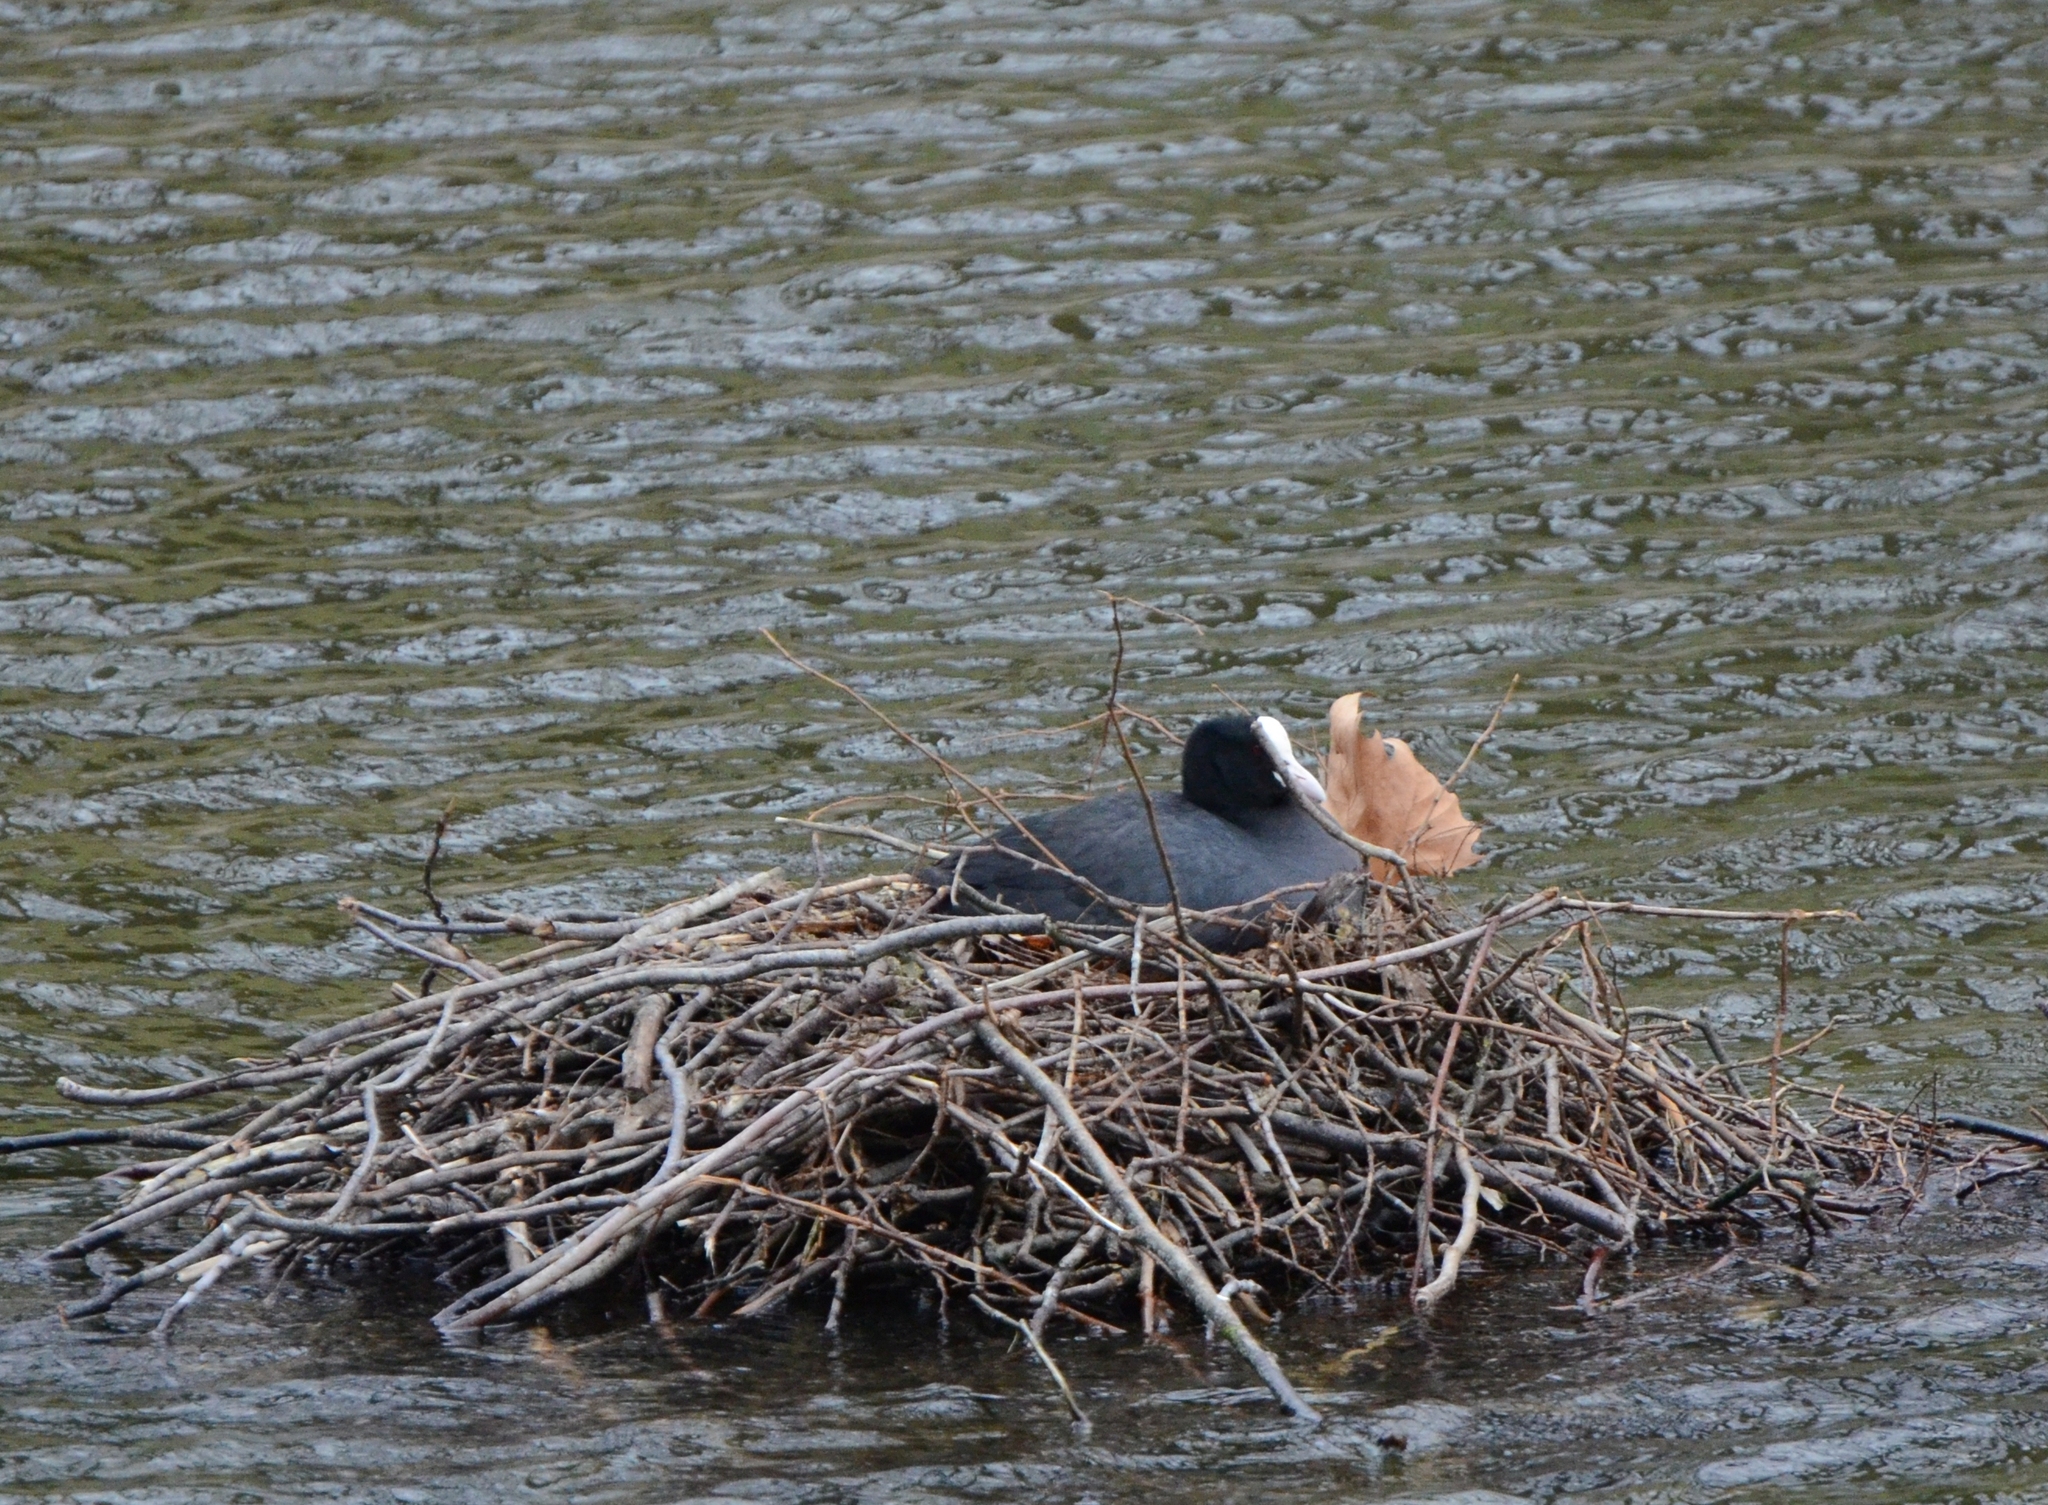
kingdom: Animalia
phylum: Chordata
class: Aves
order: Gruiformes
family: Rallidae
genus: Fulica
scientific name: Fulica atra
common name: Eurasian coot
